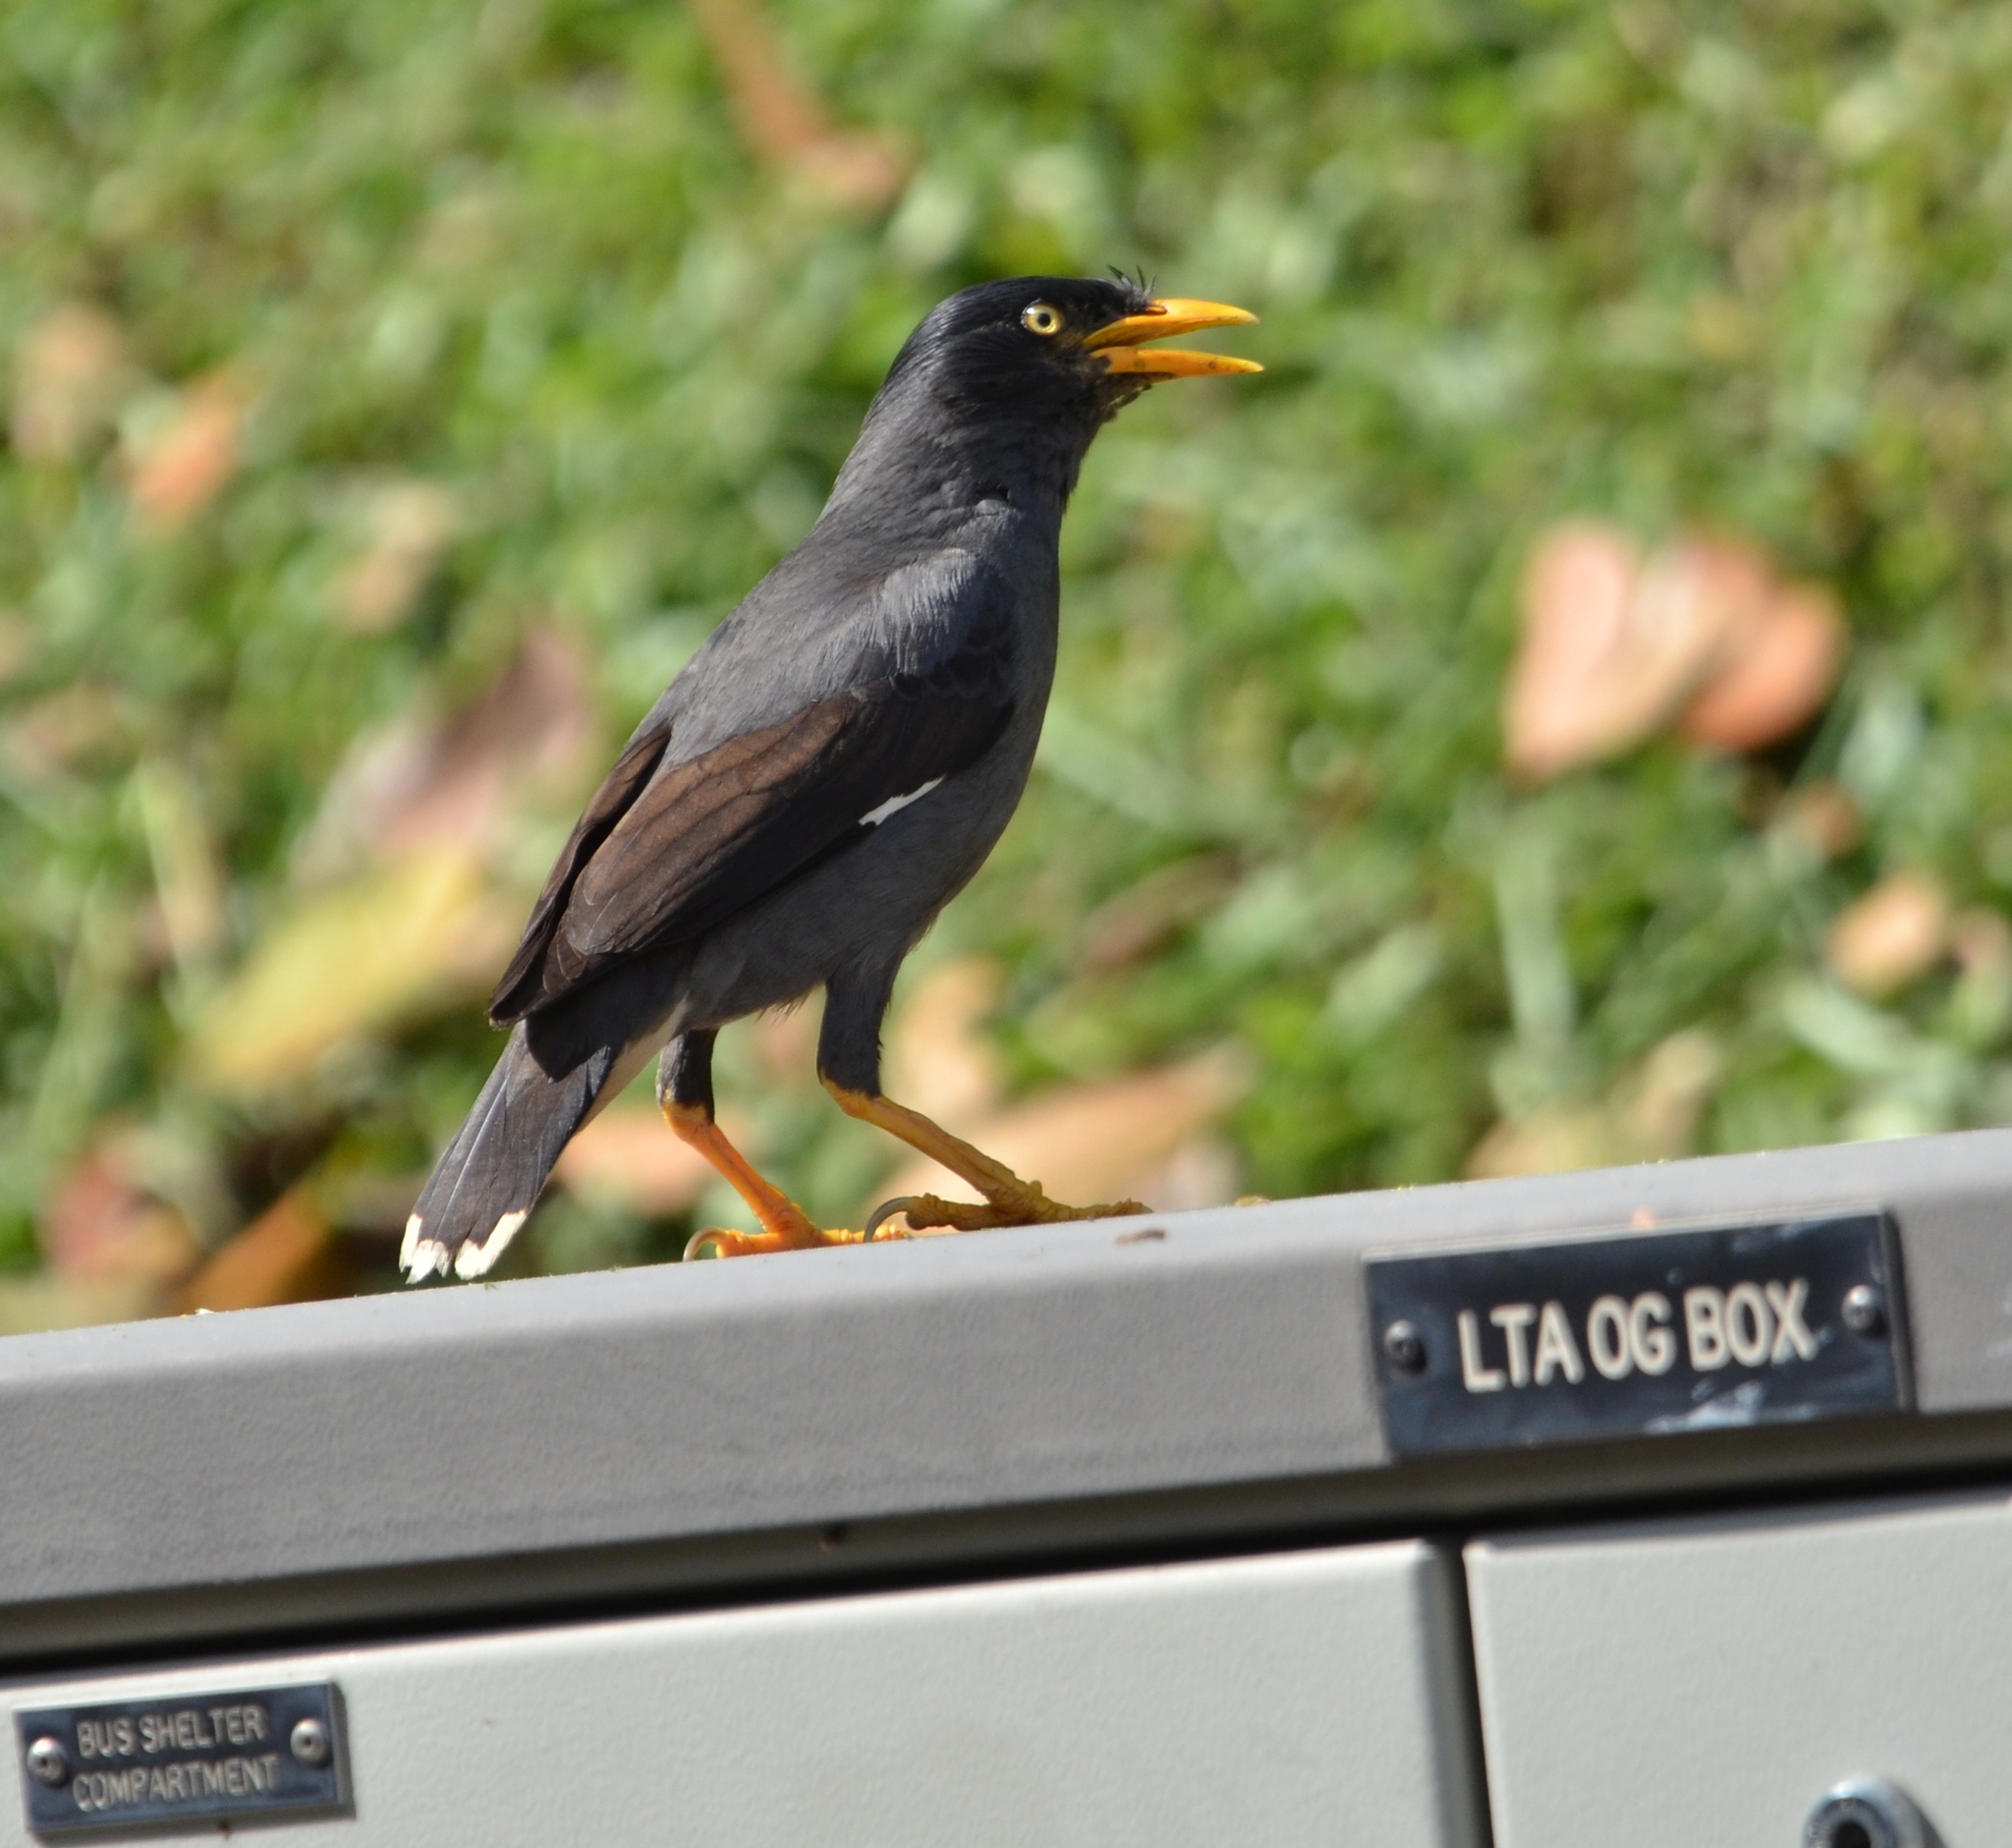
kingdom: Animalia
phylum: Chordata
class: Aves
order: Passeriformes
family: Sturnidae
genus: Acridotheres
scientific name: Acridotheres javanicus
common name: Javan myna
